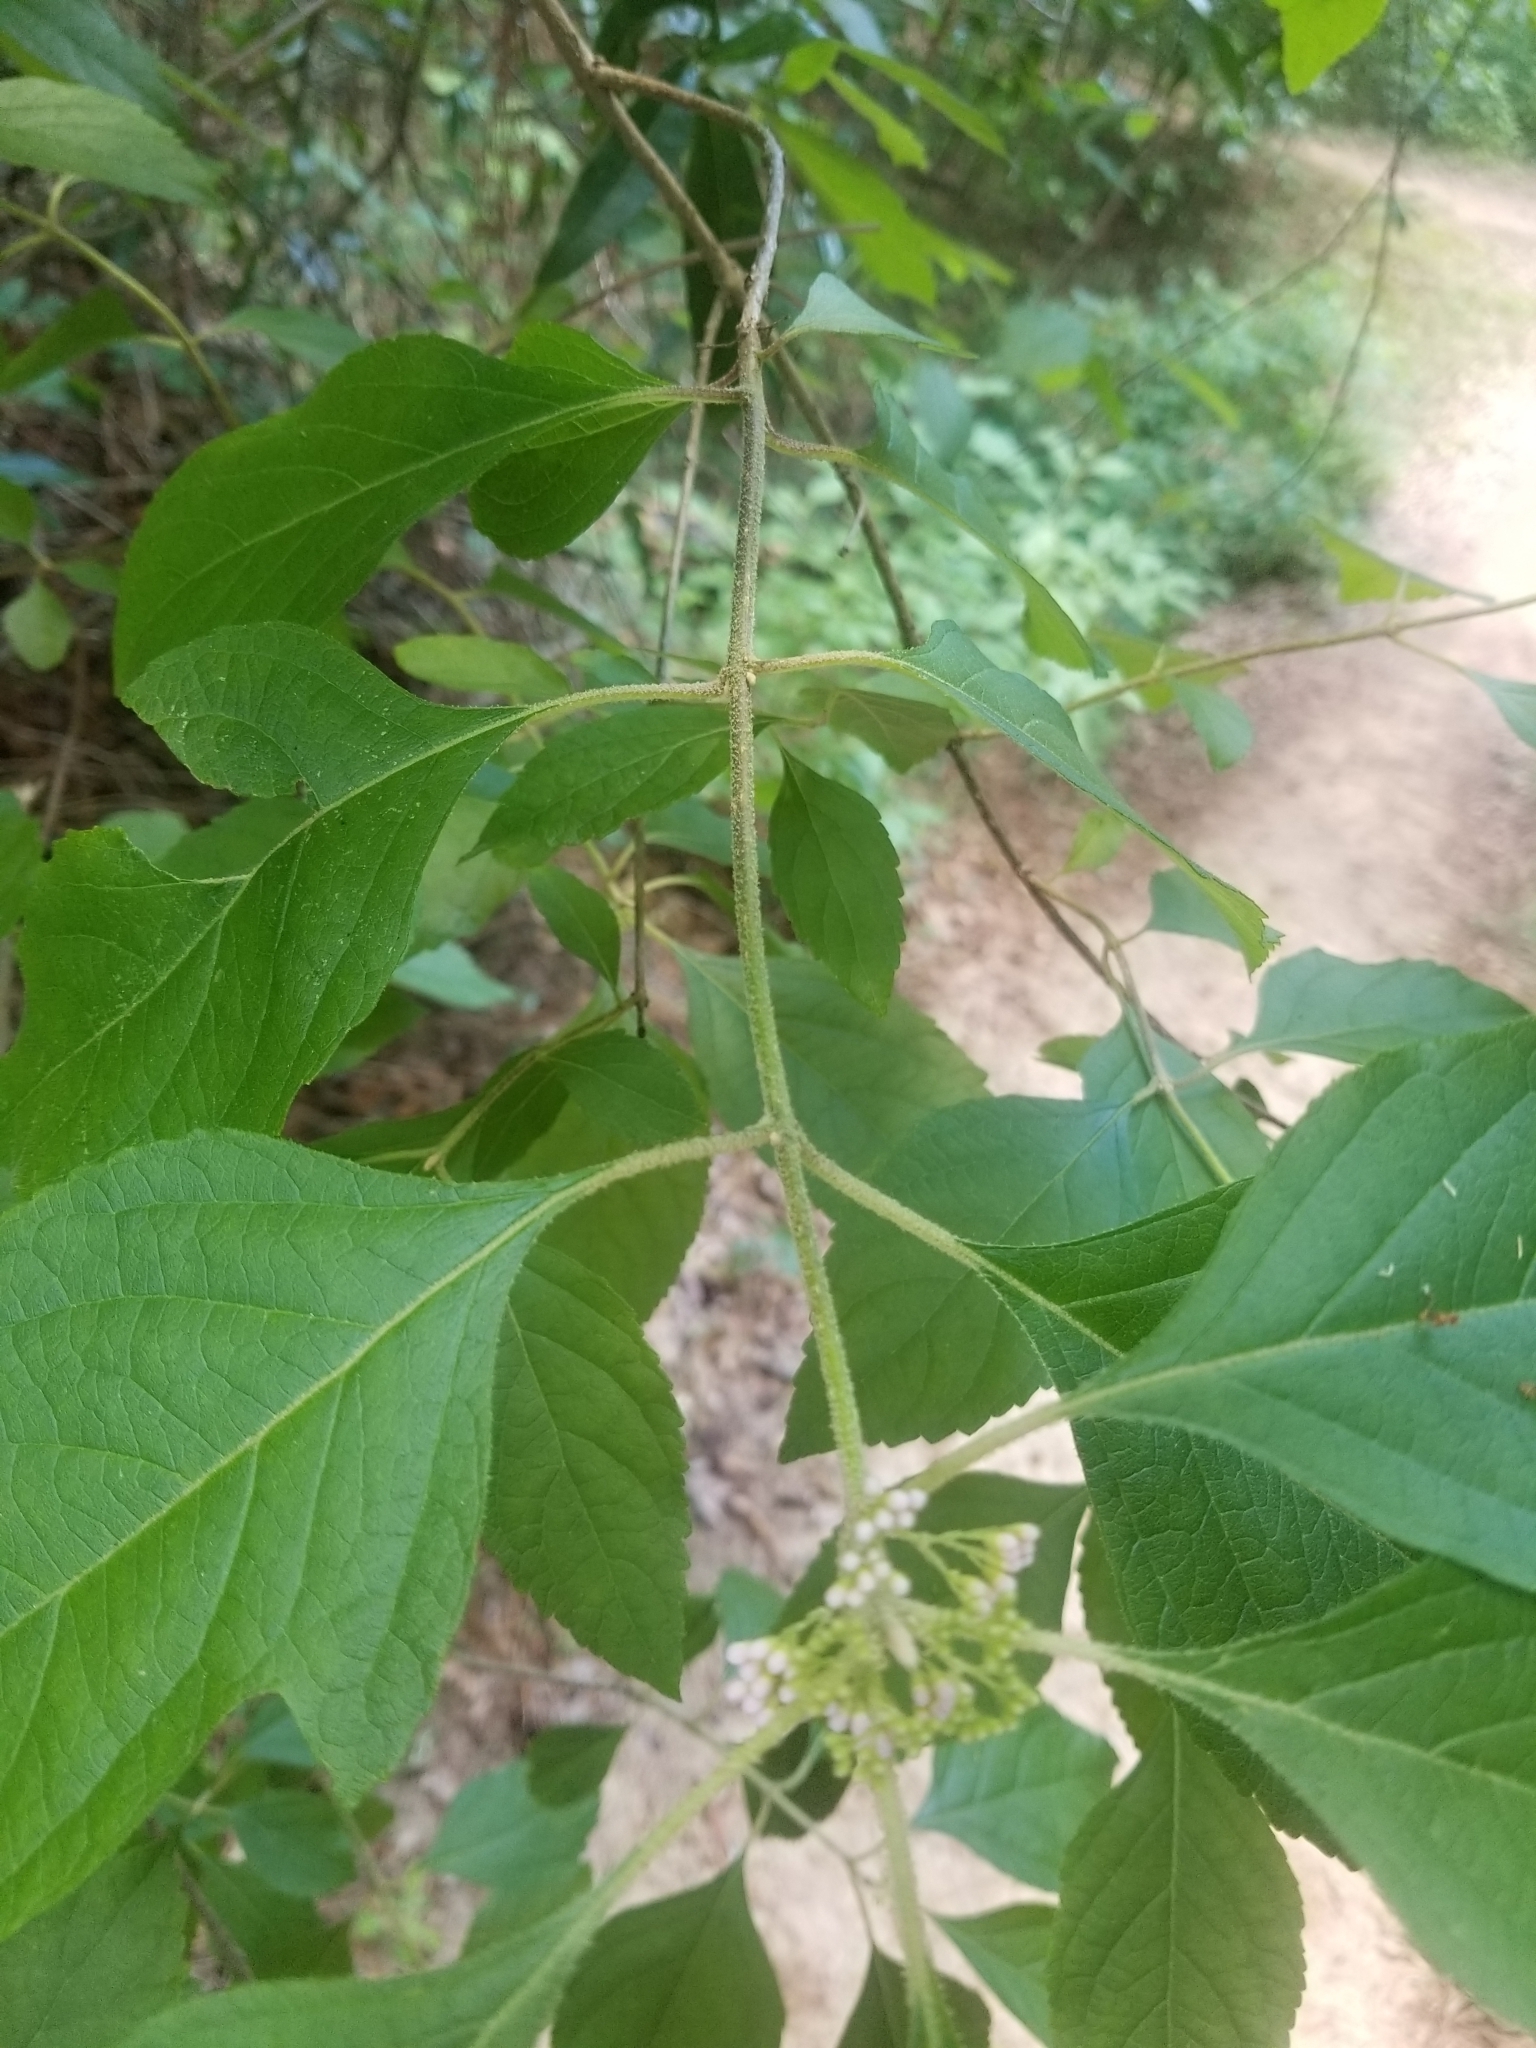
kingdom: Plantae
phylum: Tracheophyta
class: Magnoliopsida
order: Lamiales
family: Lamiaceae
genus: Callicarpa
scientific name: Callicarpa americana
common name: American beautyberry
